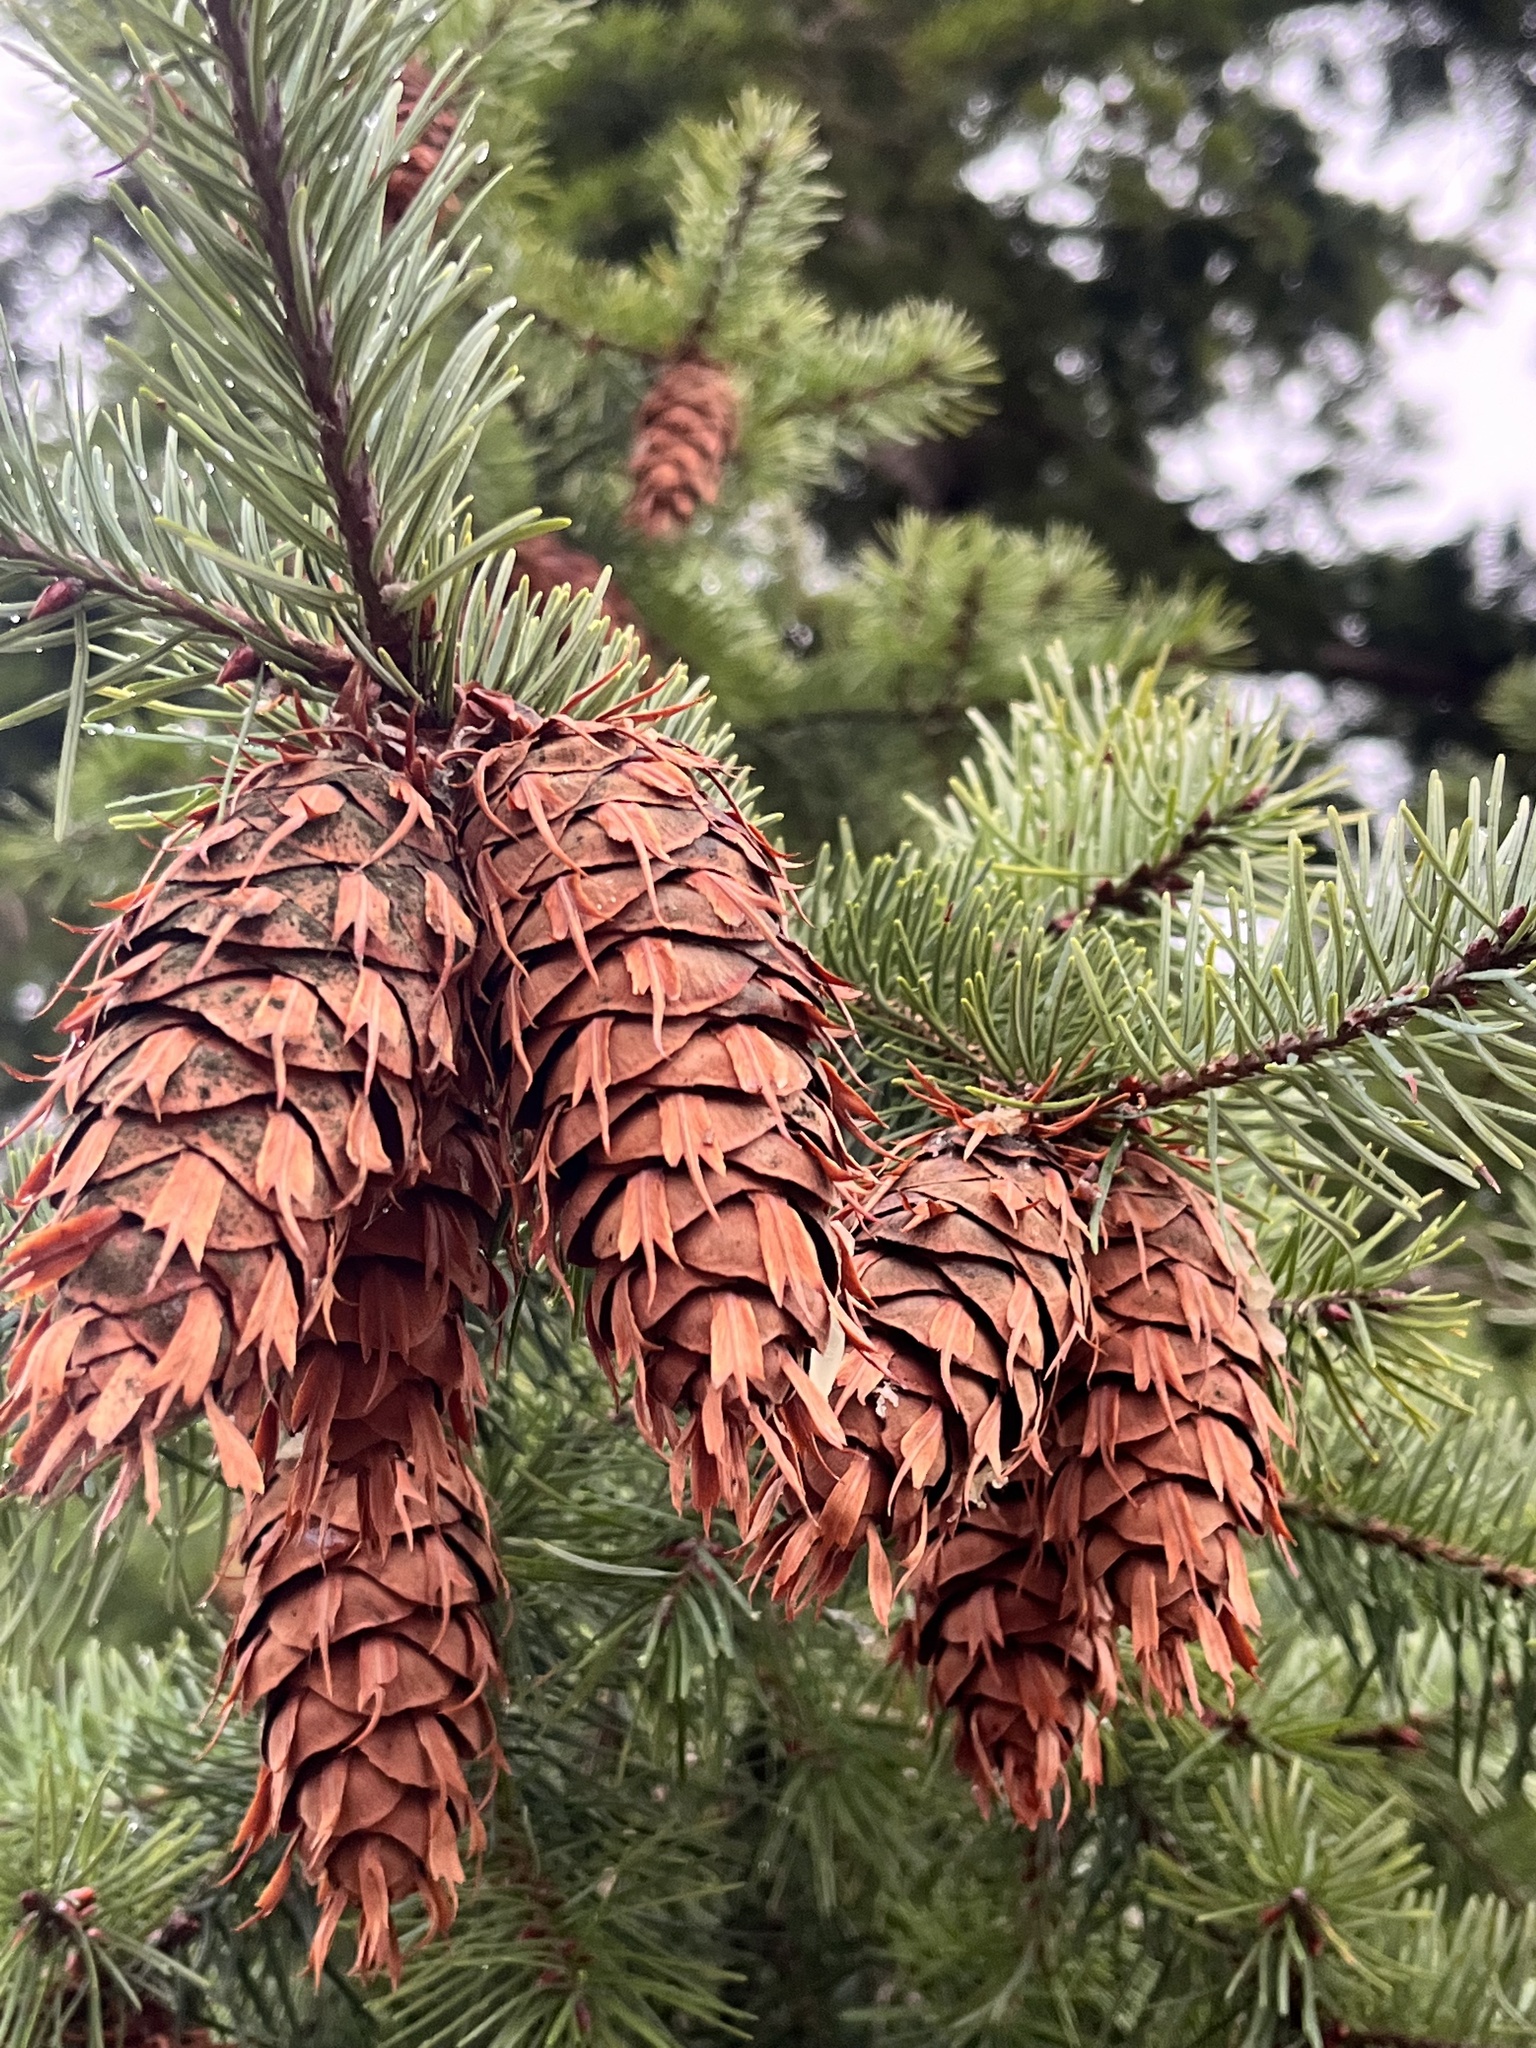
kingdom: Plantae
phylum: Tracheophyta
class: Pinopsida
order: Pinales
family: Pinaceae
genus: Pseudotsuga
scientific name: Pseudotsuga menziesii
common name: Douglas fir
